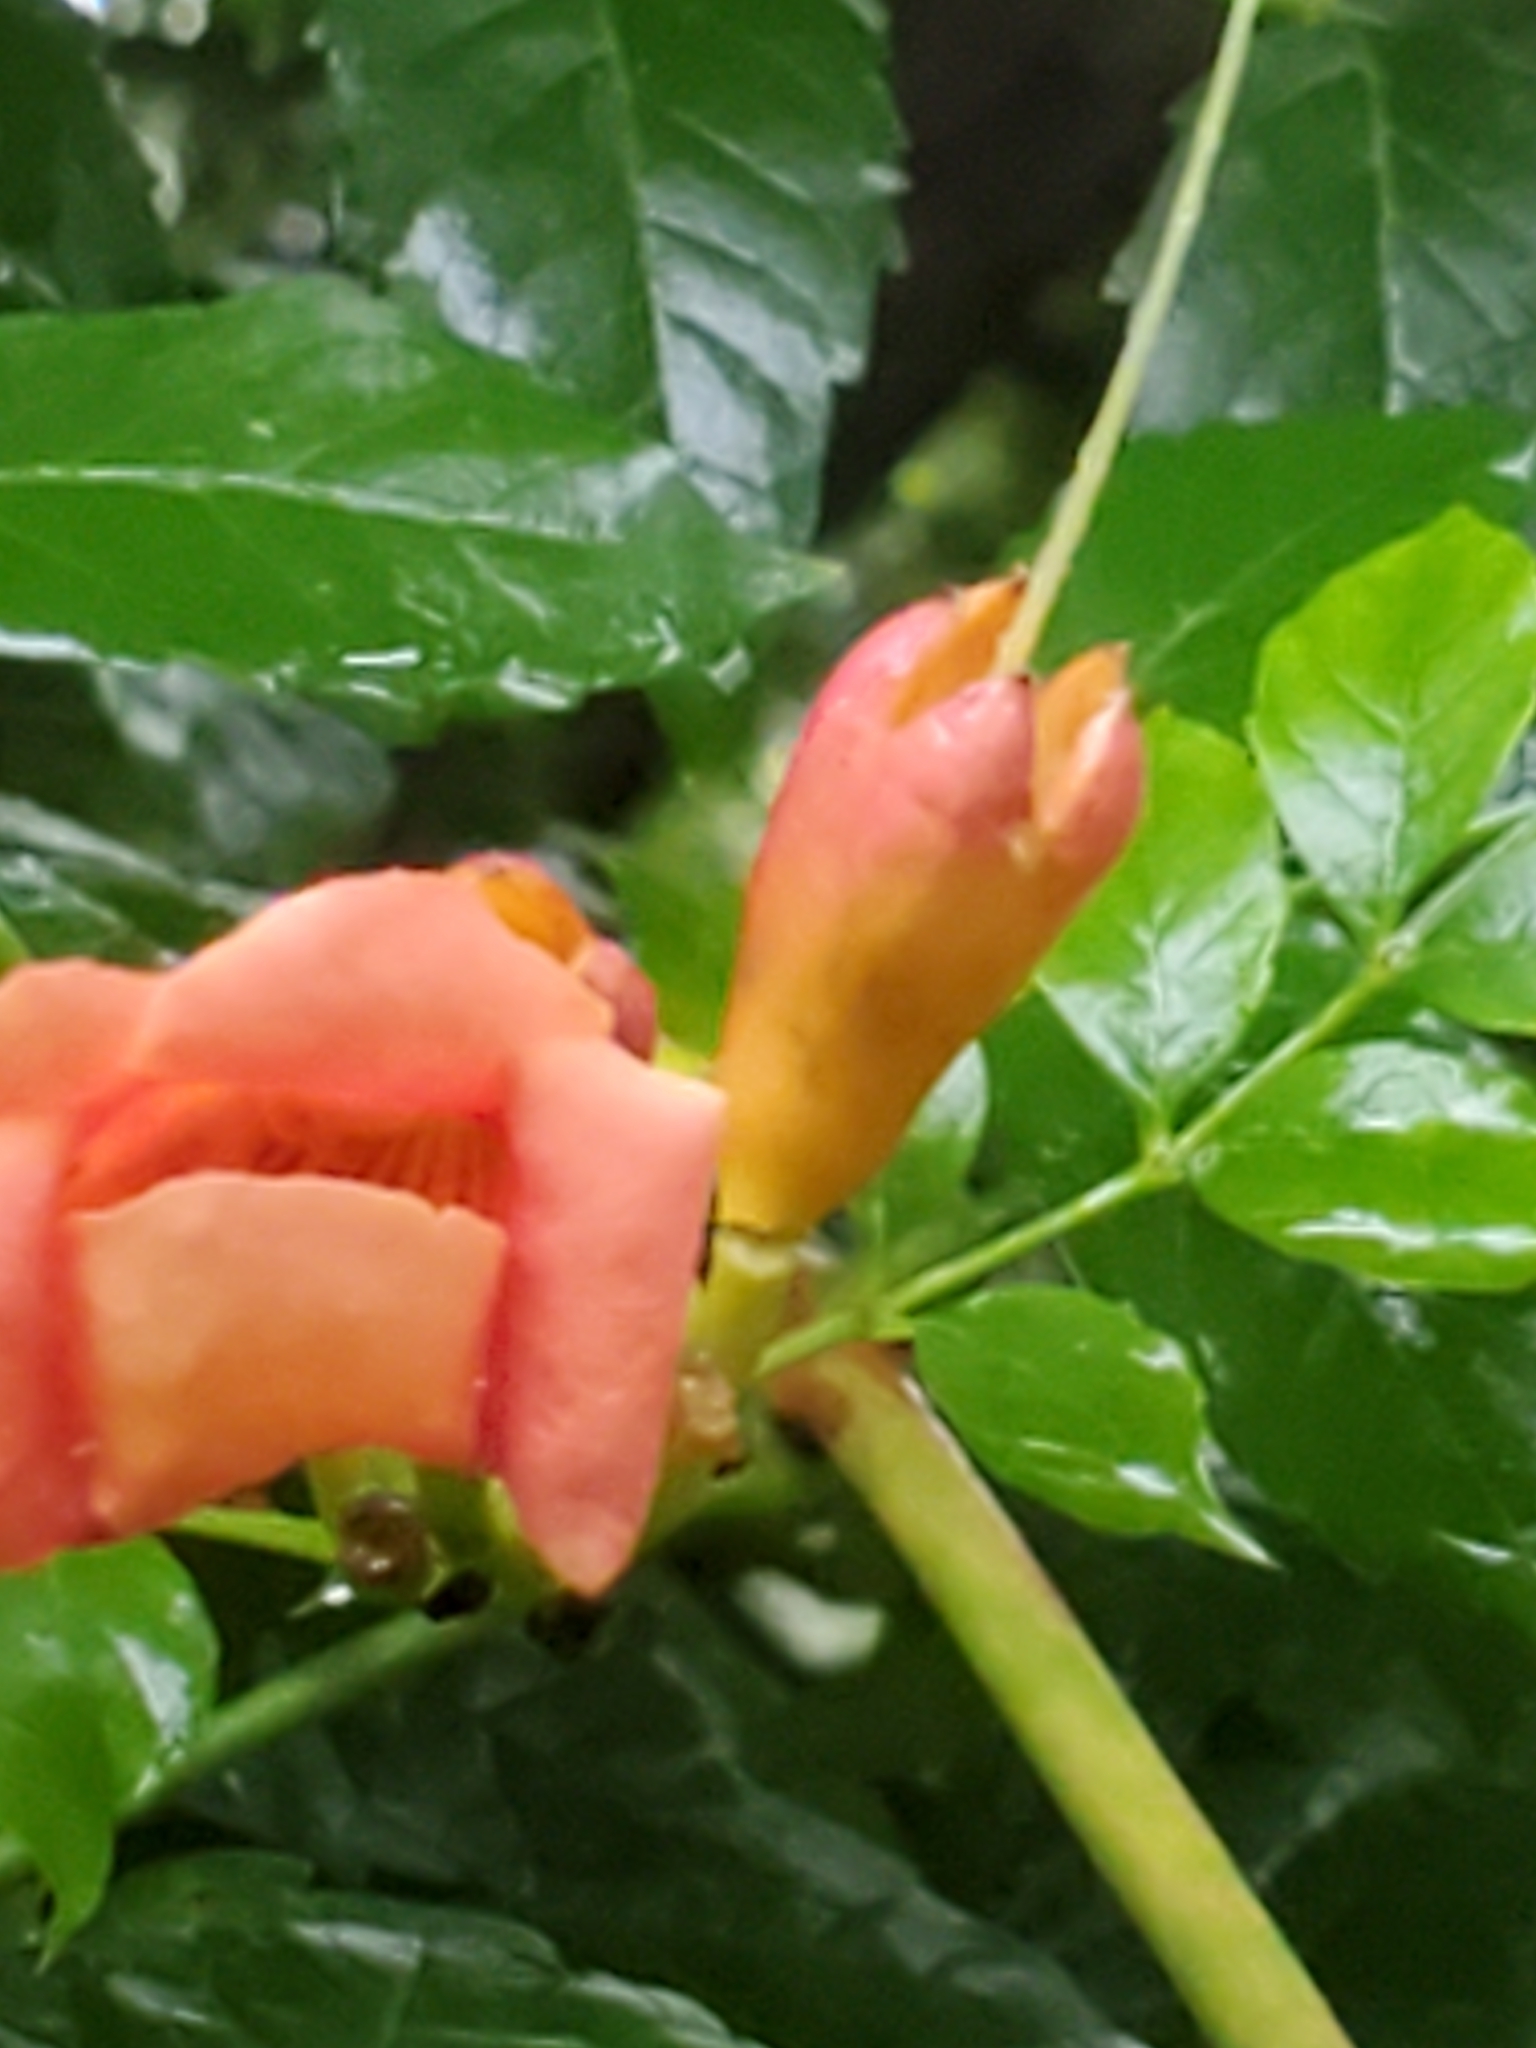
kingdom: Plantae
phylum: Tracheophyta
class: Magnoliopsida
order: Lamiales
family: Bignoniaceae
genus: Campsis
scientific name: Campsis radicans
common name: Trumpet-creeper
